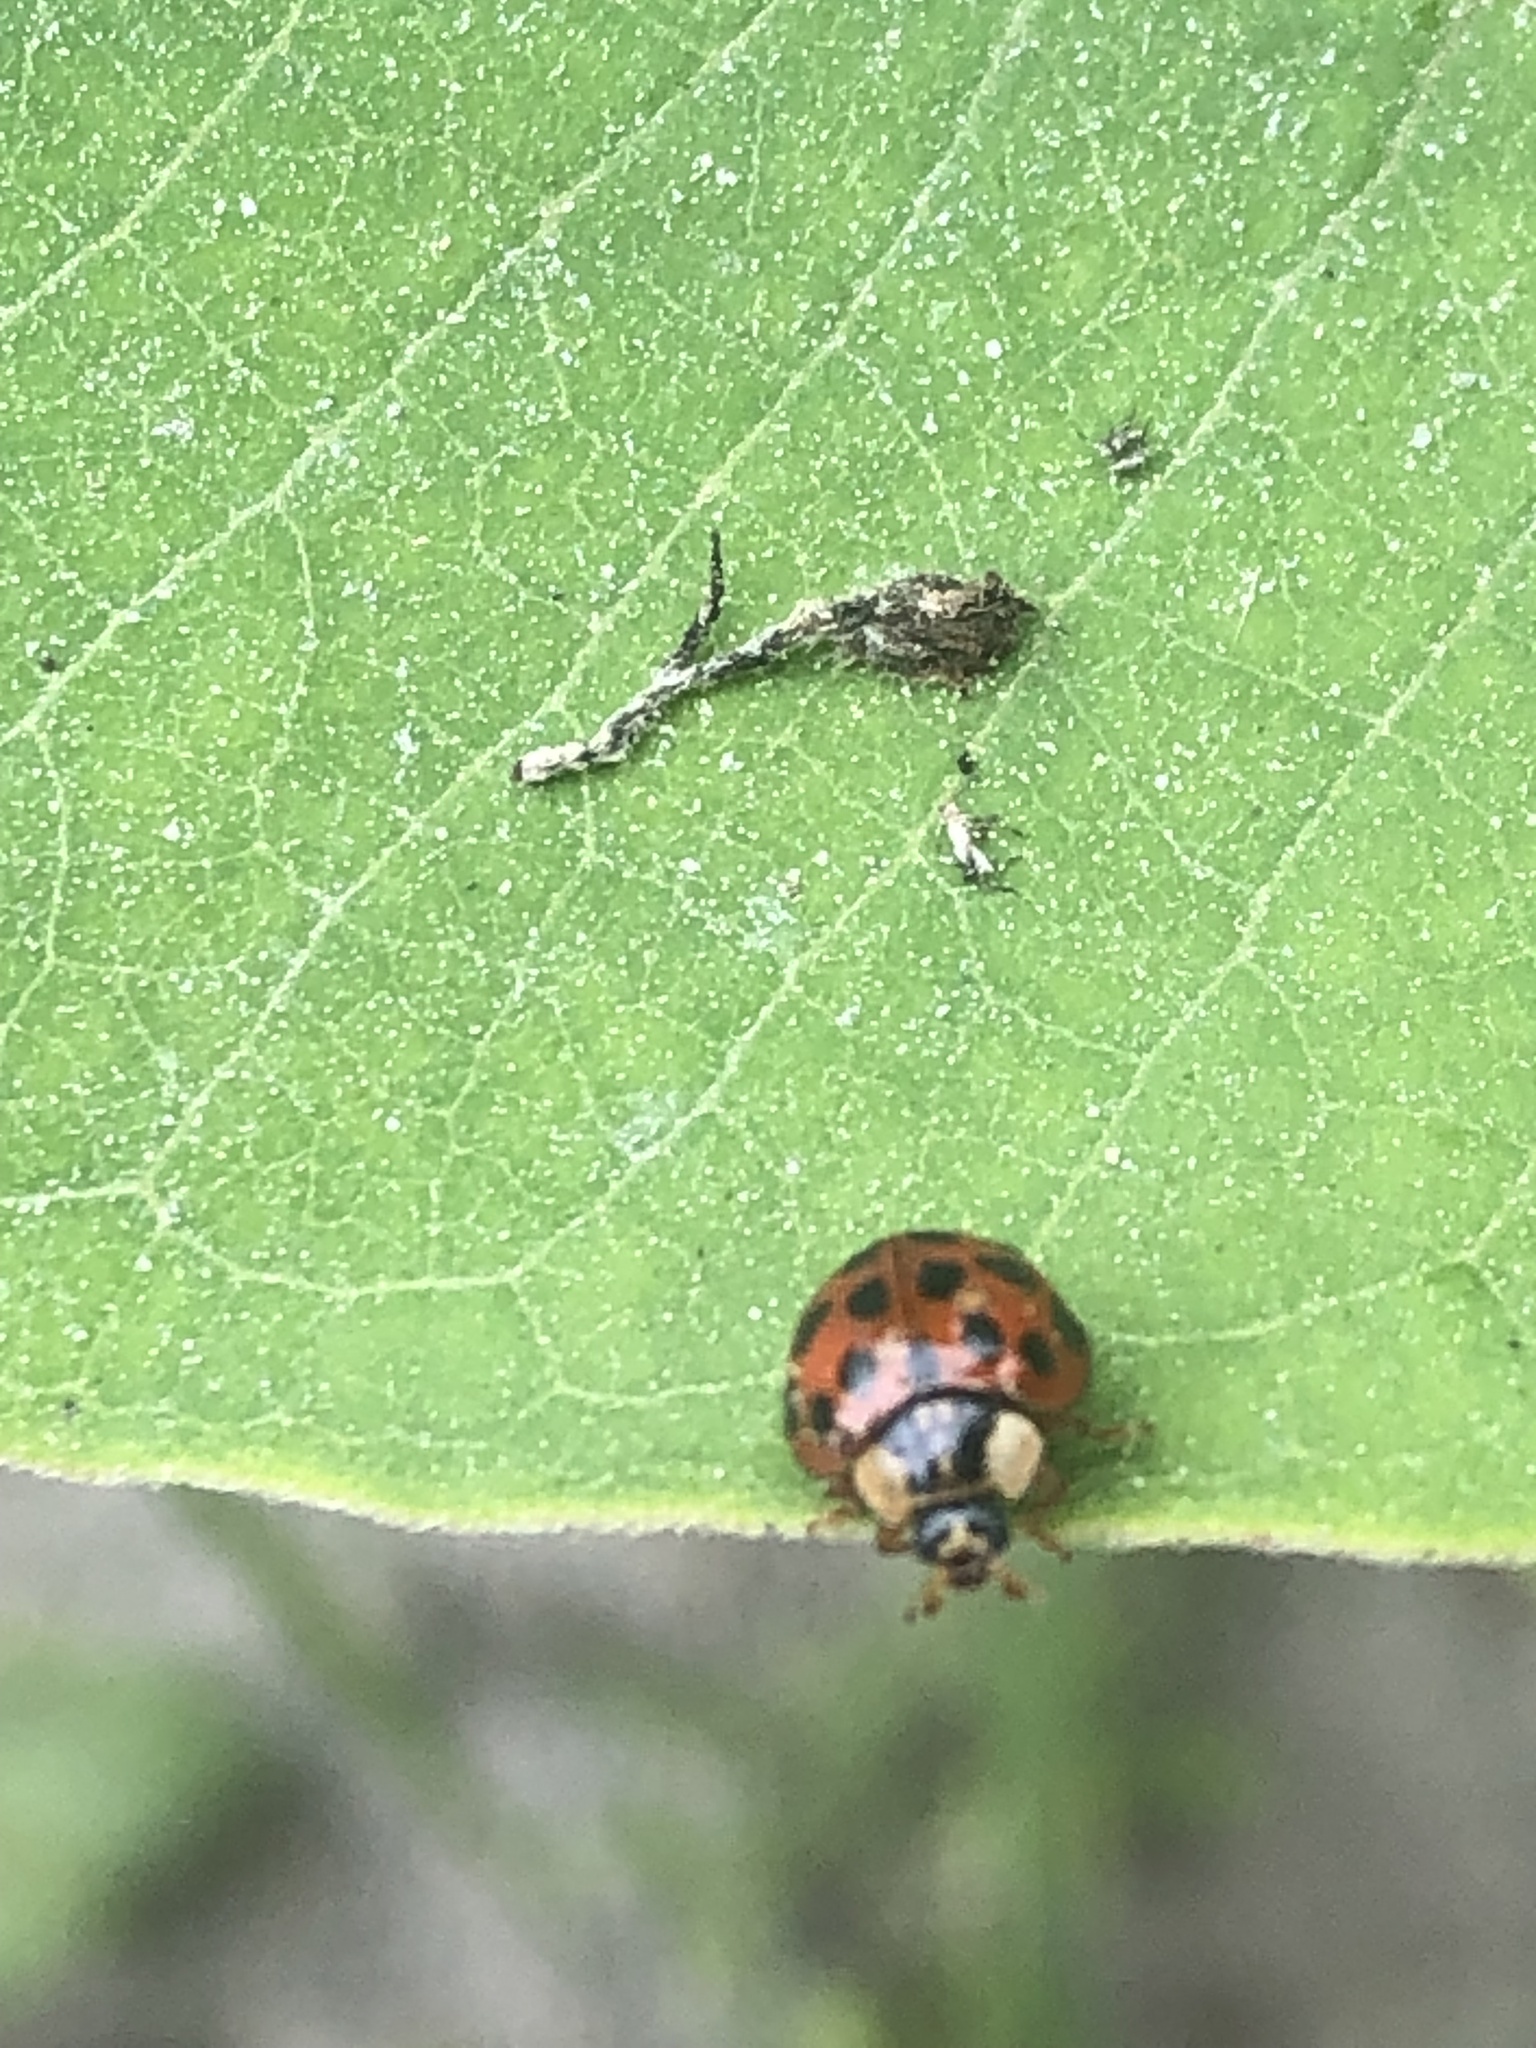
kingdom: Animalia
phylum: Arthropoda
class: Insecta
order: Coleoptera
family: Coccinellidae
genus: Harmonia
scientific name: Harmonia axyridis
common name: Harlequin ladybird
